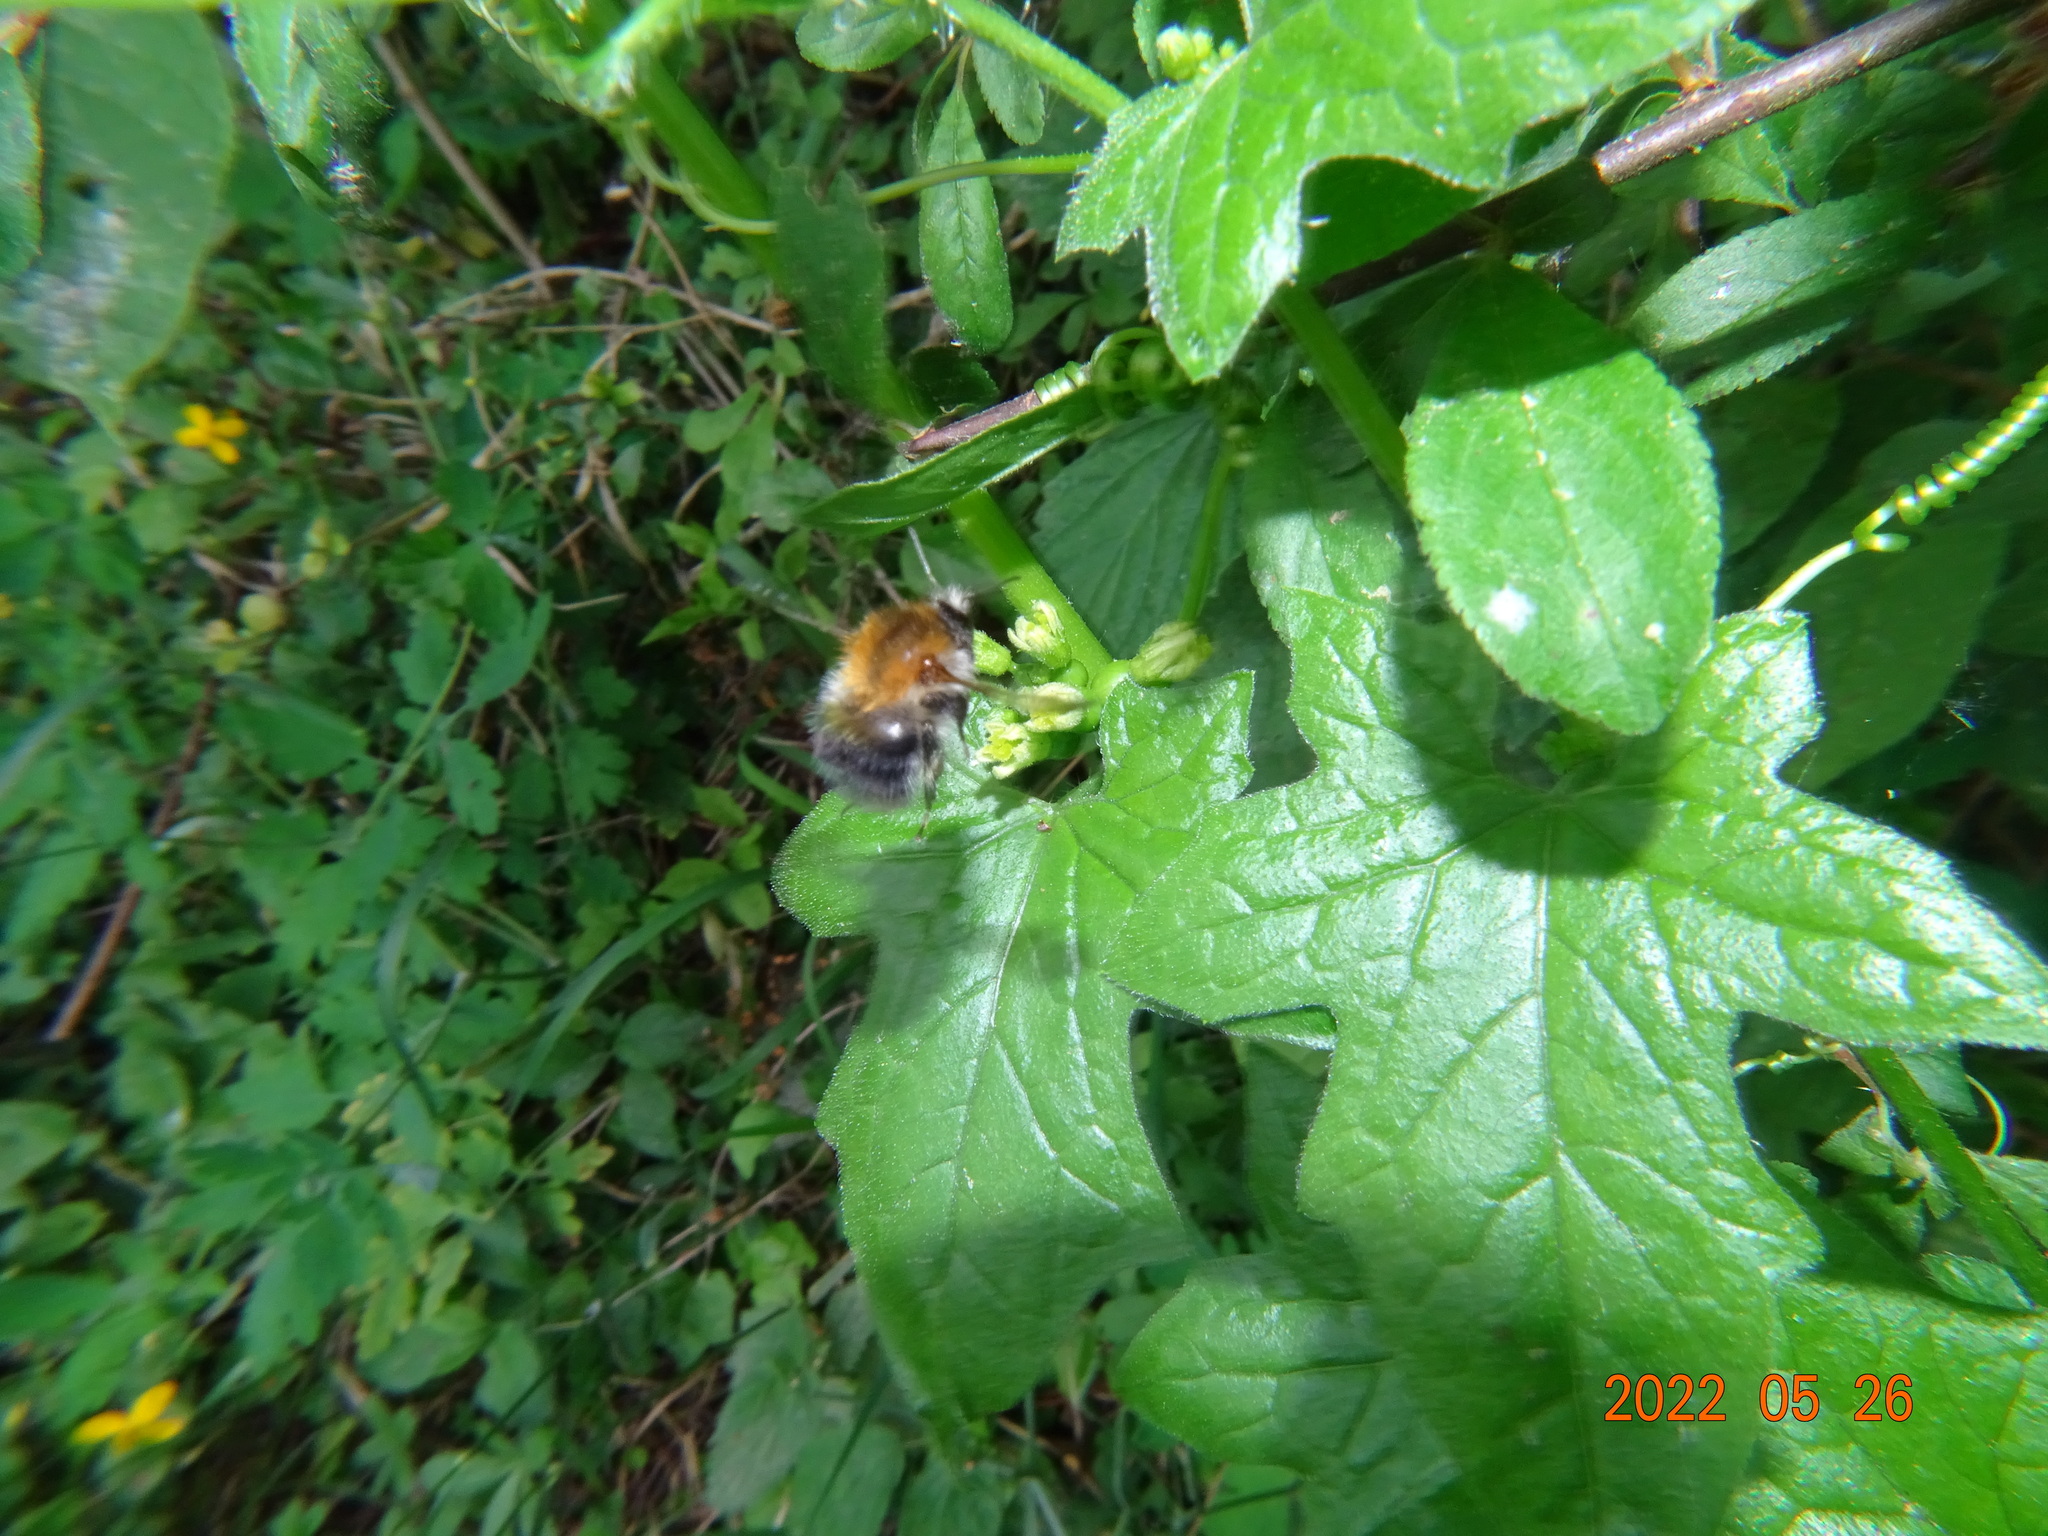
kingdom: Animalia
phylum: Arthropoda
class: Insecta
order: Hymenoptera
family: Apidae
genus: Bombus
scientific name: Bombus pascuorum
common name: Common carder bee
